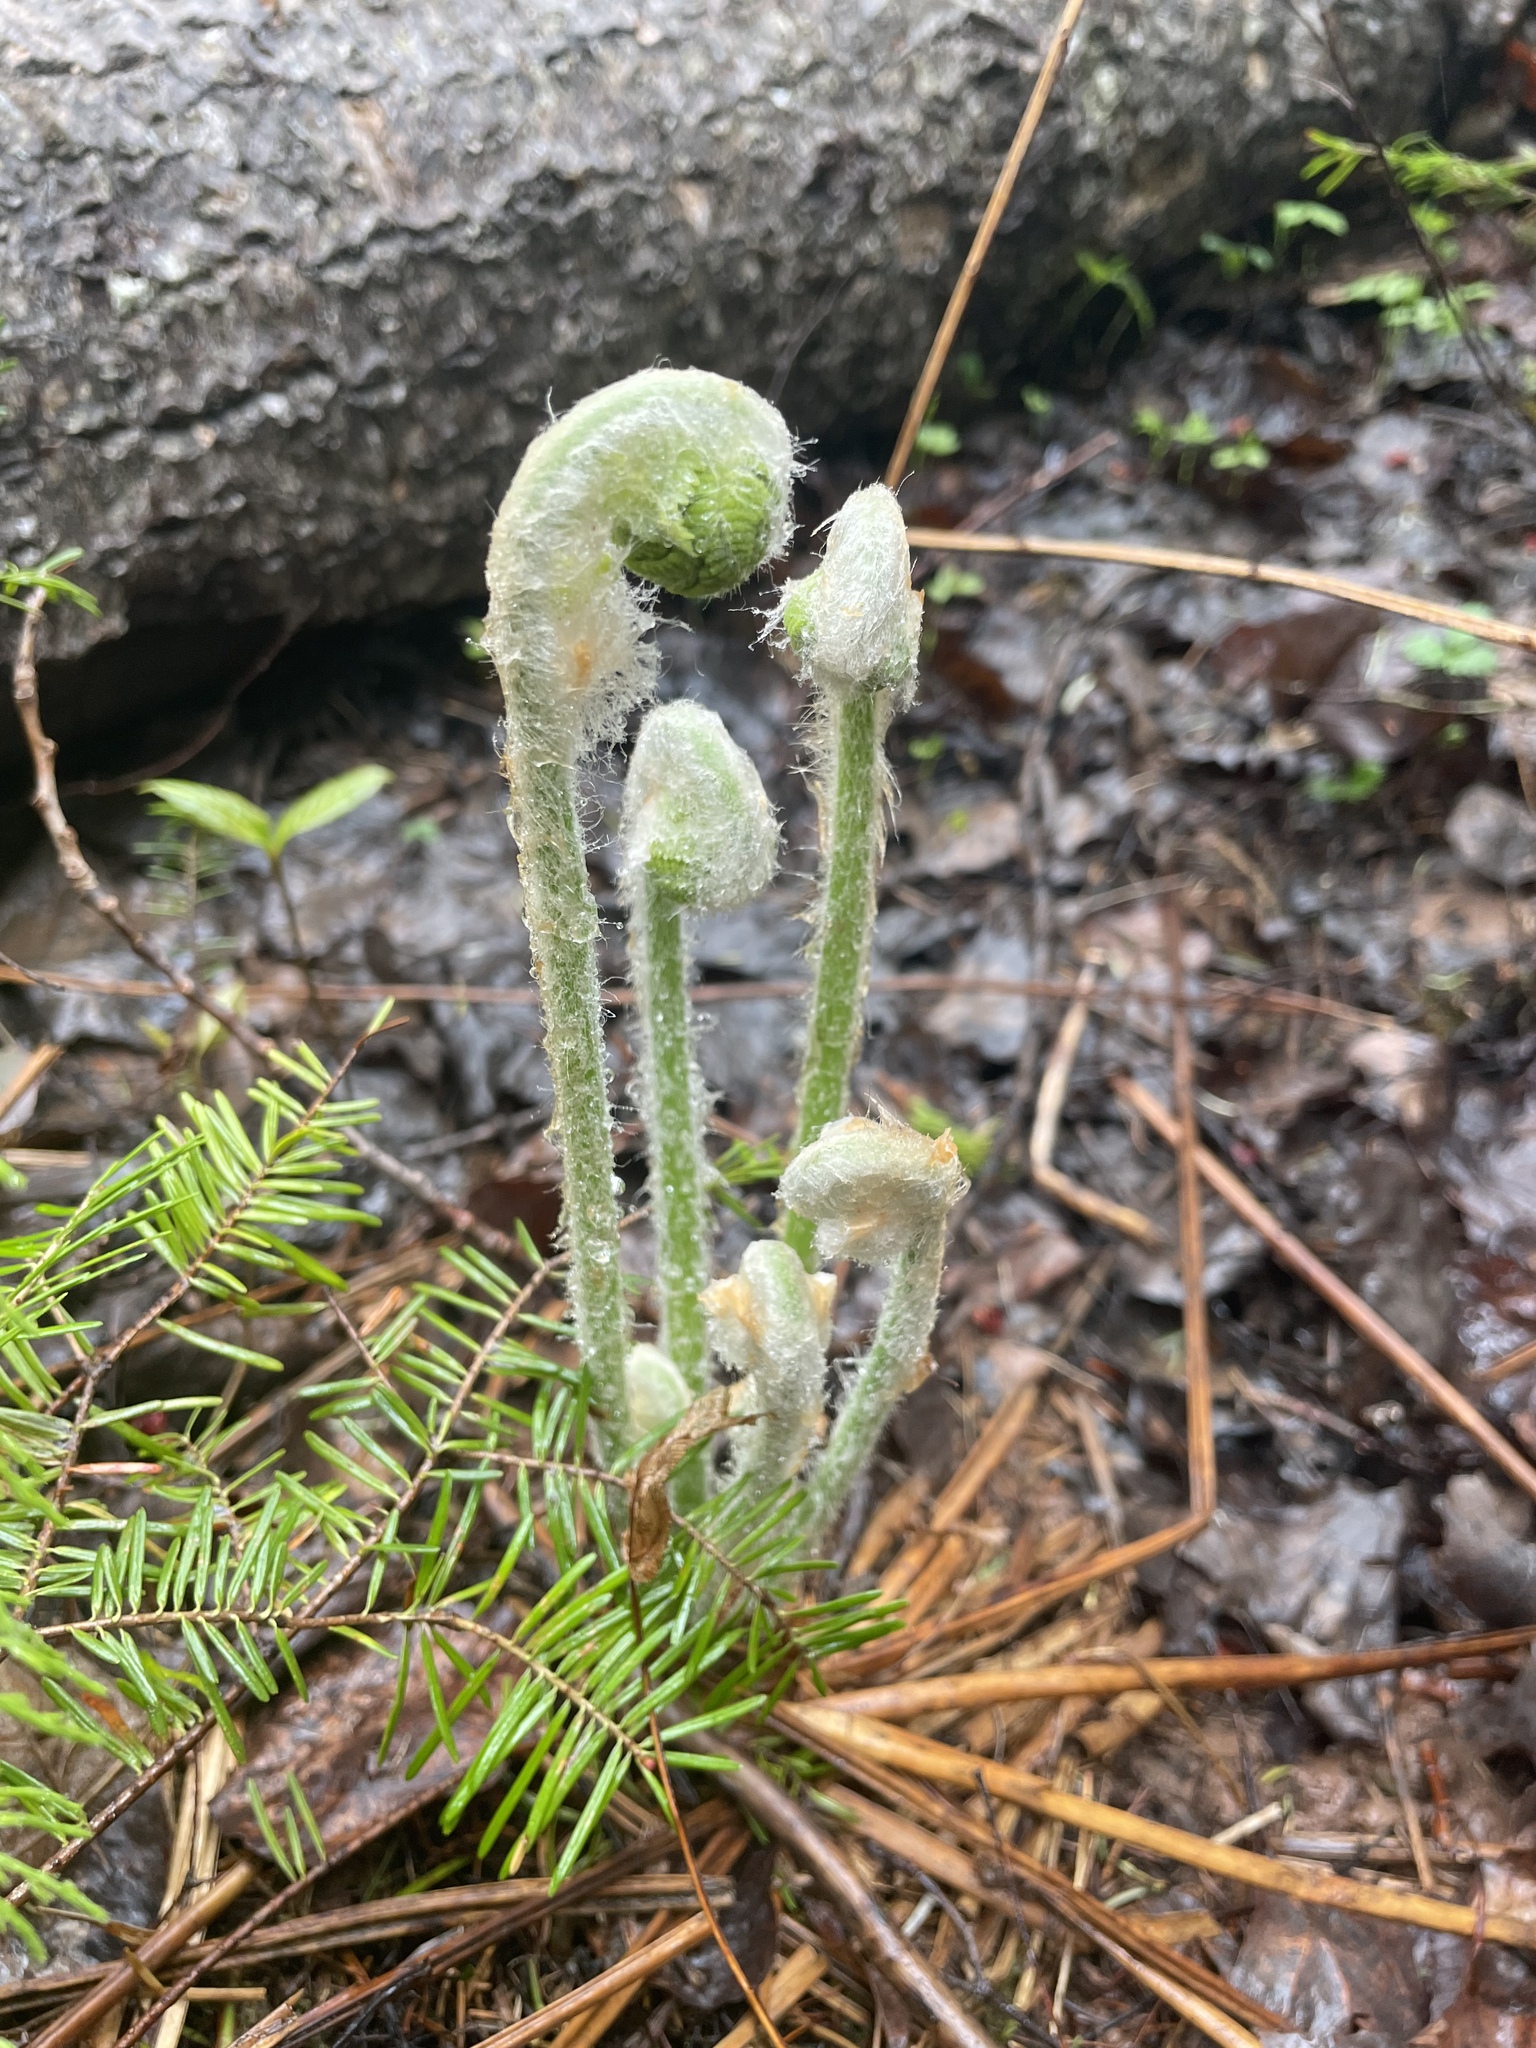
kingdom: Plantae
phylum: Tracheophyta
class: Polypodiopsida
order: Osmundales
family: Osmundaceae
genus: Osmundastrum
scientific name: Osmundastrum cinnamomeum
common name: Cinnamon fern
